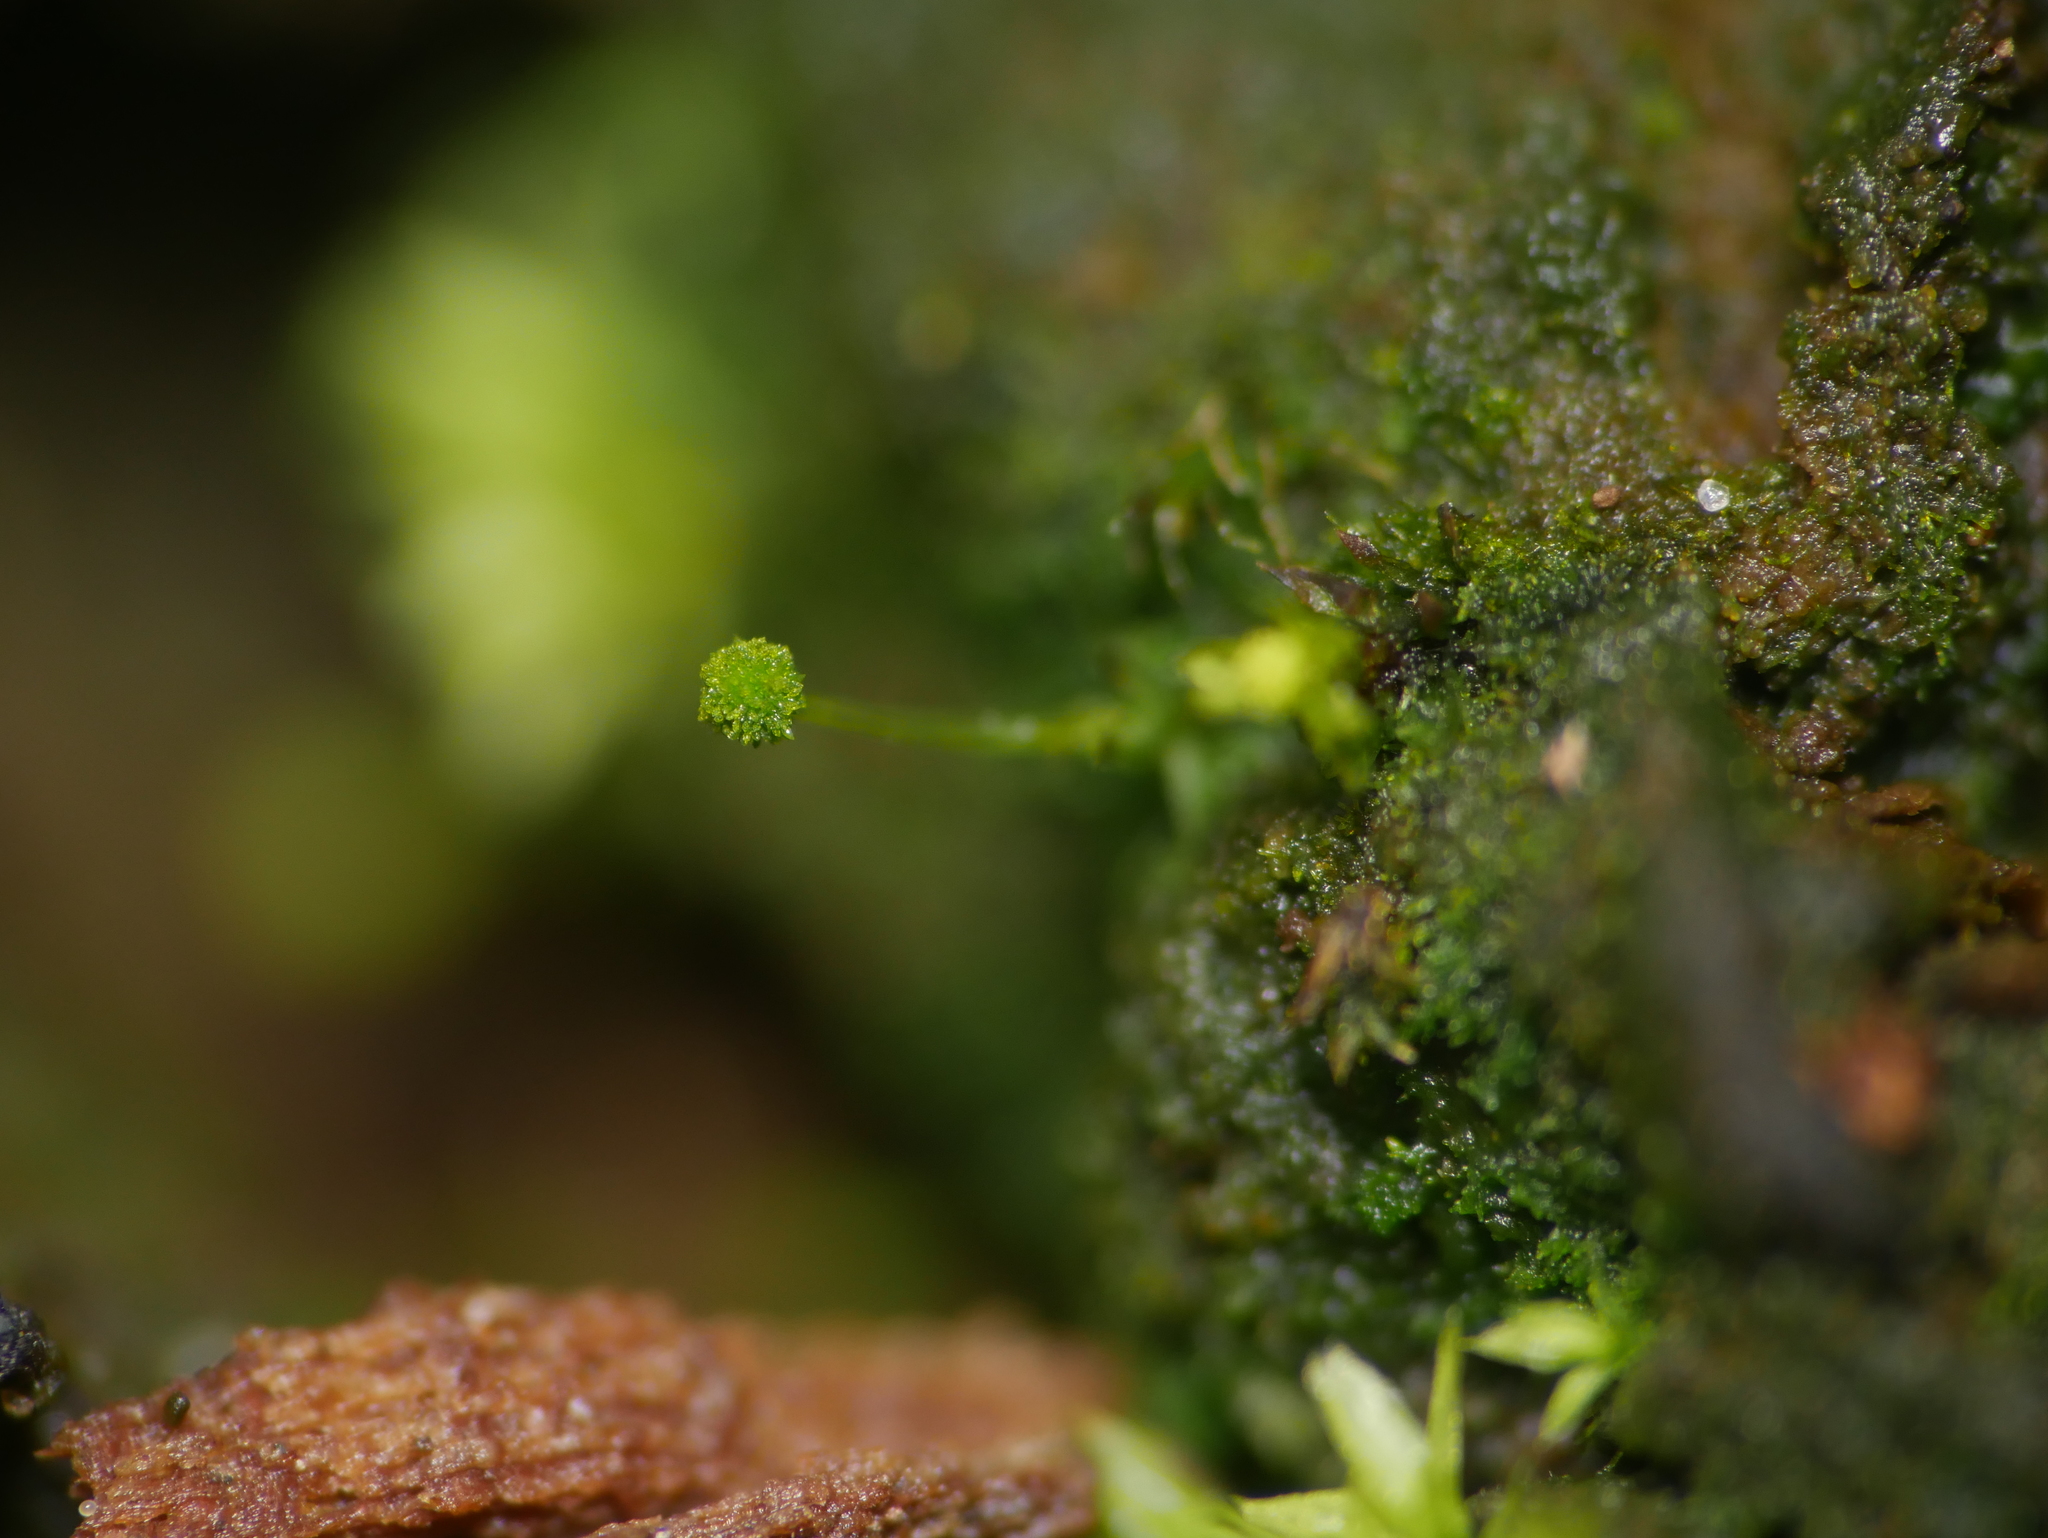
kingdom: Plantae
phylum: Bryophyta
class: Bryopsida
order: Aulacomniales
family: Aulacomniaceae
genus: Aulacomnium
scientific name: Aulacomnium androgynum
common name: Little groove moss
